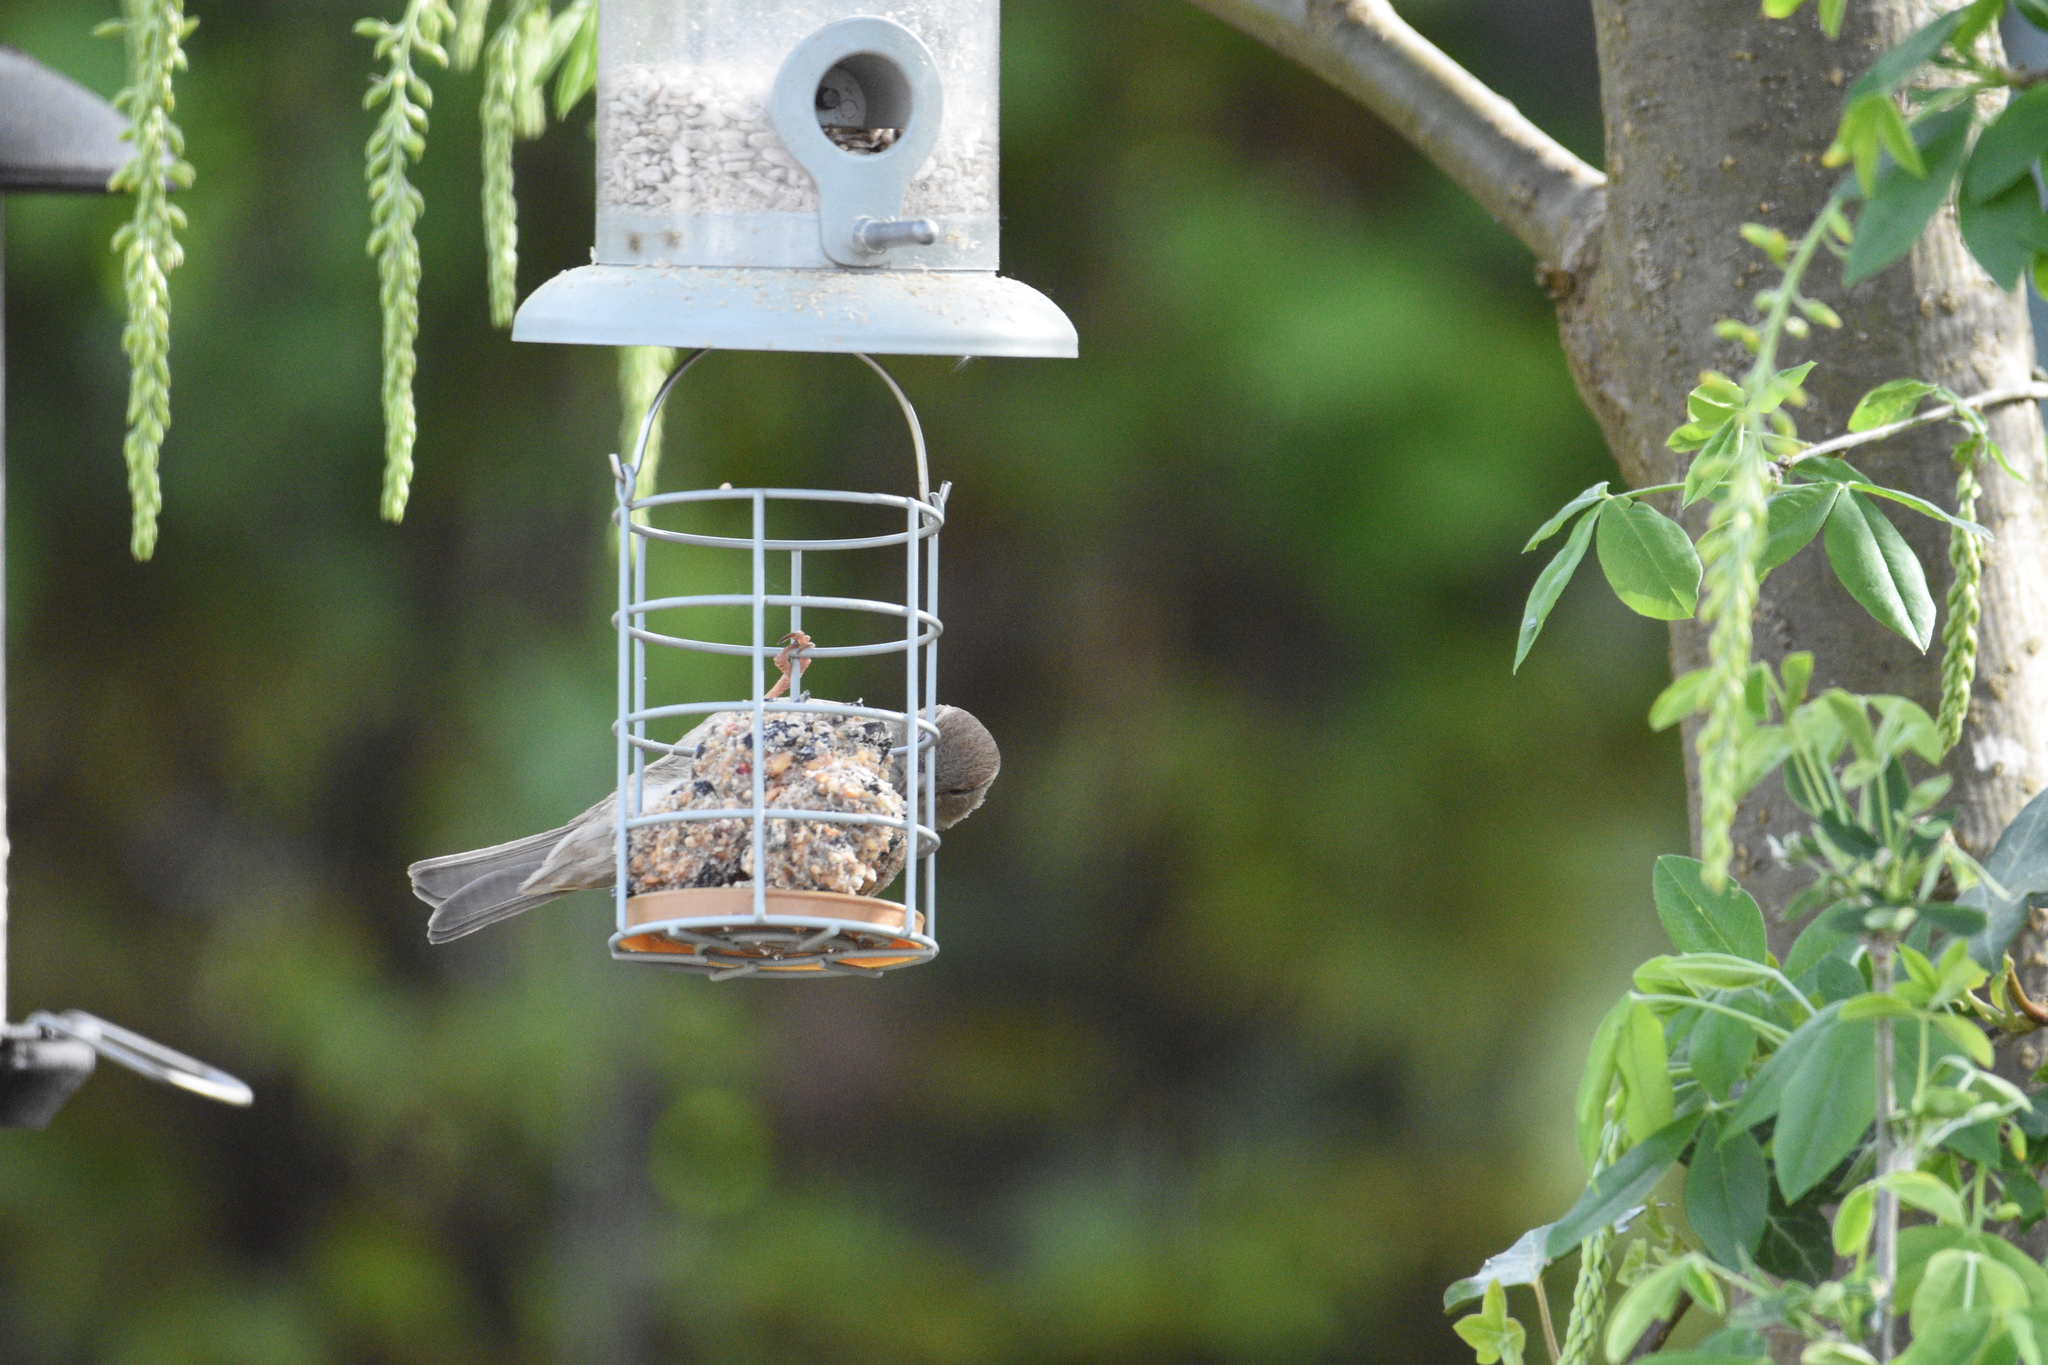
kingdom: Animalia
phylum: Chordata
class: Aves
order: Passeriformes
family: Passeridae
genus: Passer
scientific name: Passer domesticus
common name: House sparrow
